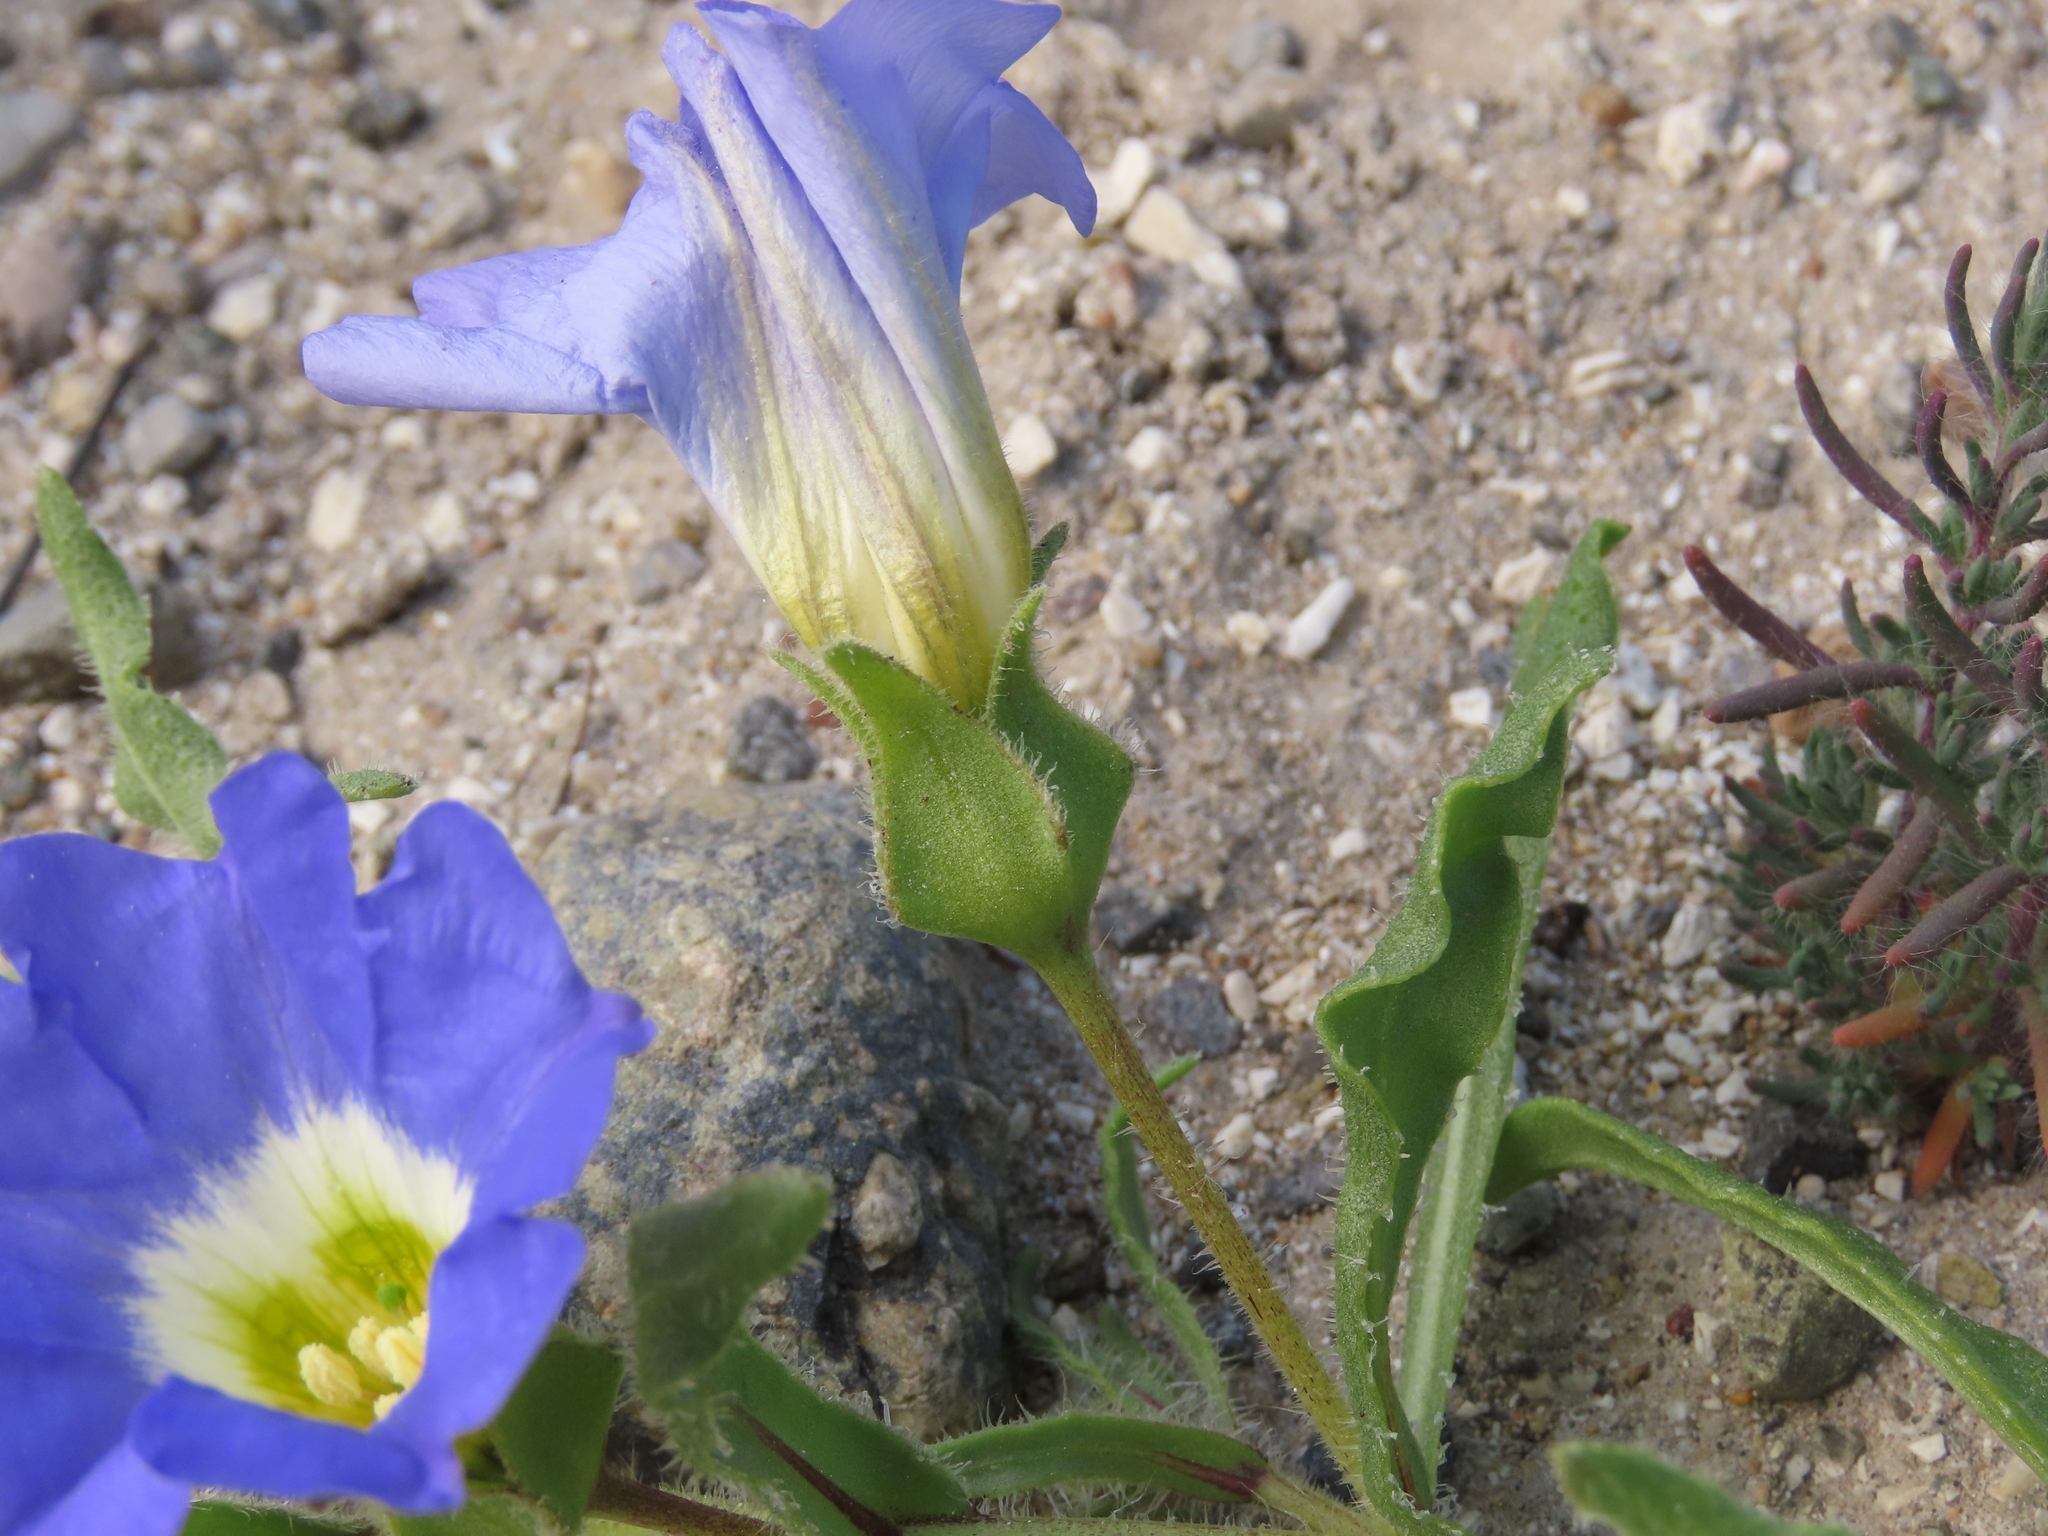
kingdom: Plantae
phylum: Tracheophyta
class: Magnoliopsida
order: Solanales
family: Solanaceae
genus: Nolana
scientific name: Nolana acuminata
